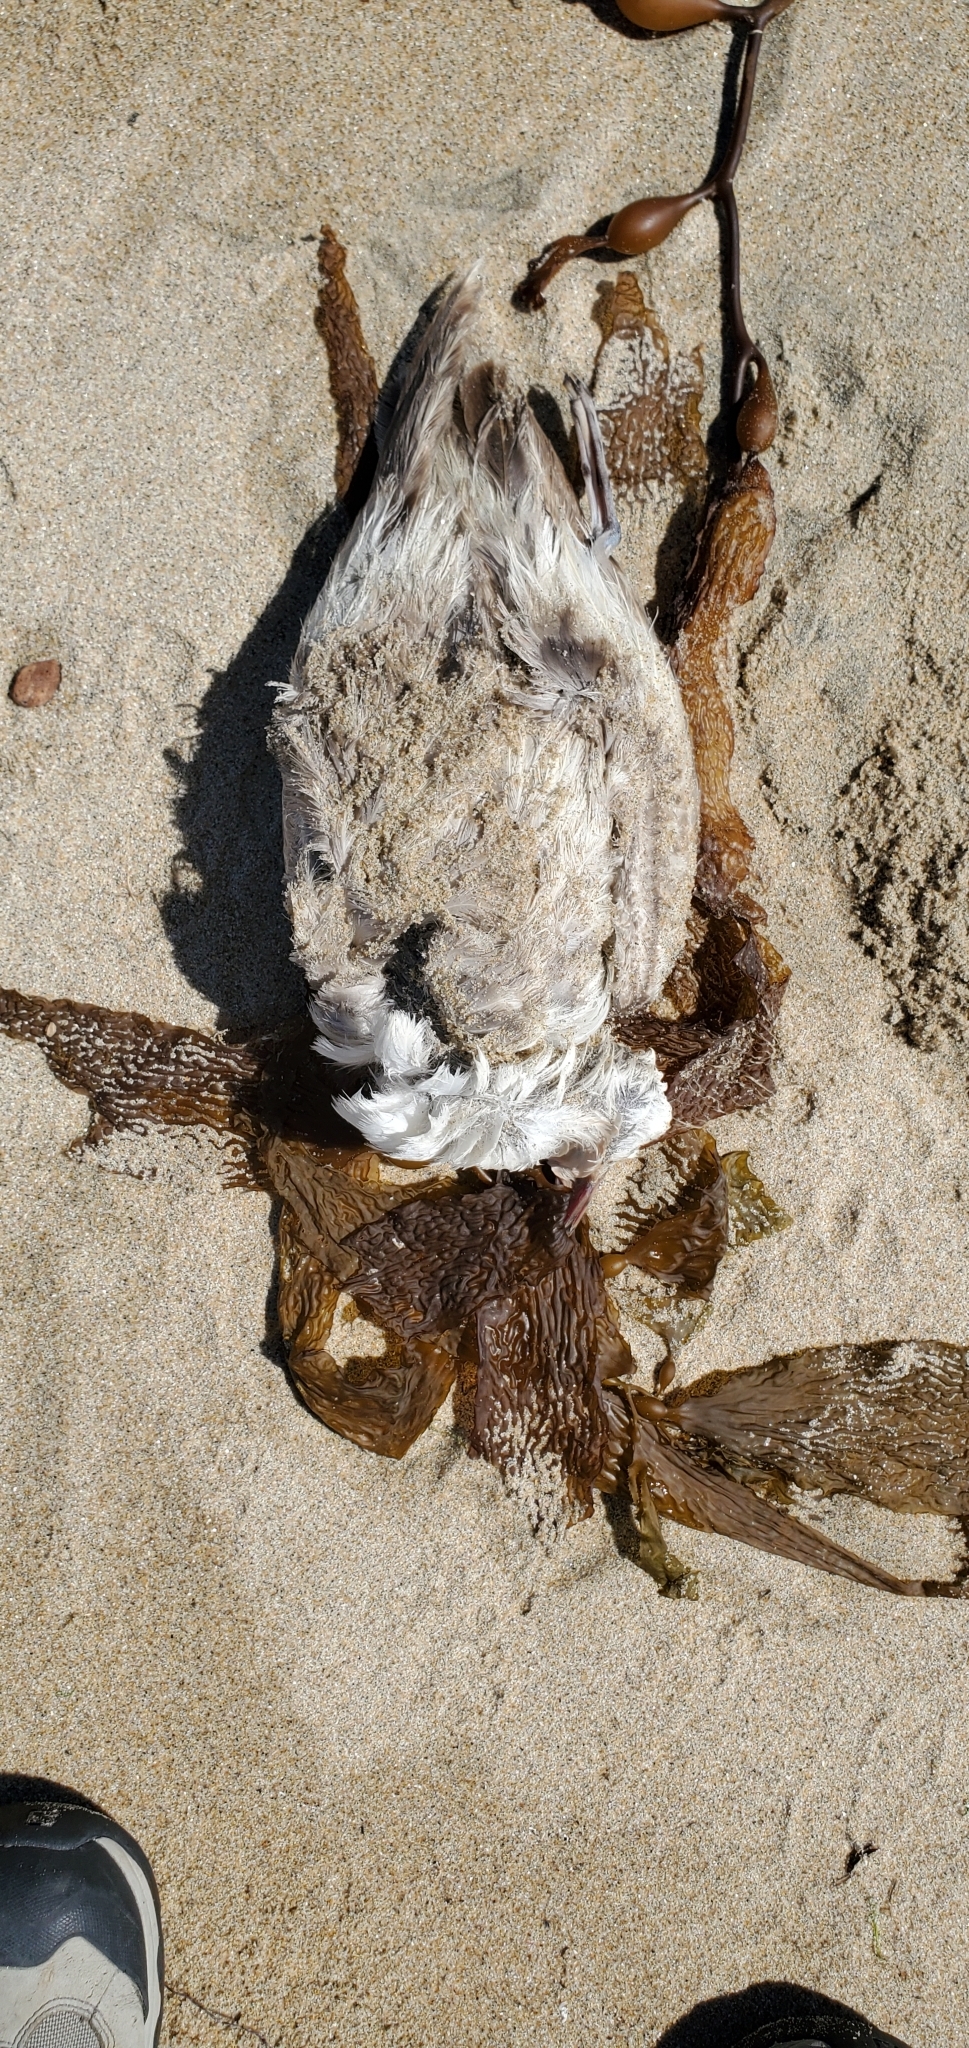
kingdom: Animalia
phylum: Chordata
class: Aves
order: Procellariiformes
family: Procellariidae
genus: Fulmarus
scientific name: Fulmarus glacialis
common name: Northern fulmar
